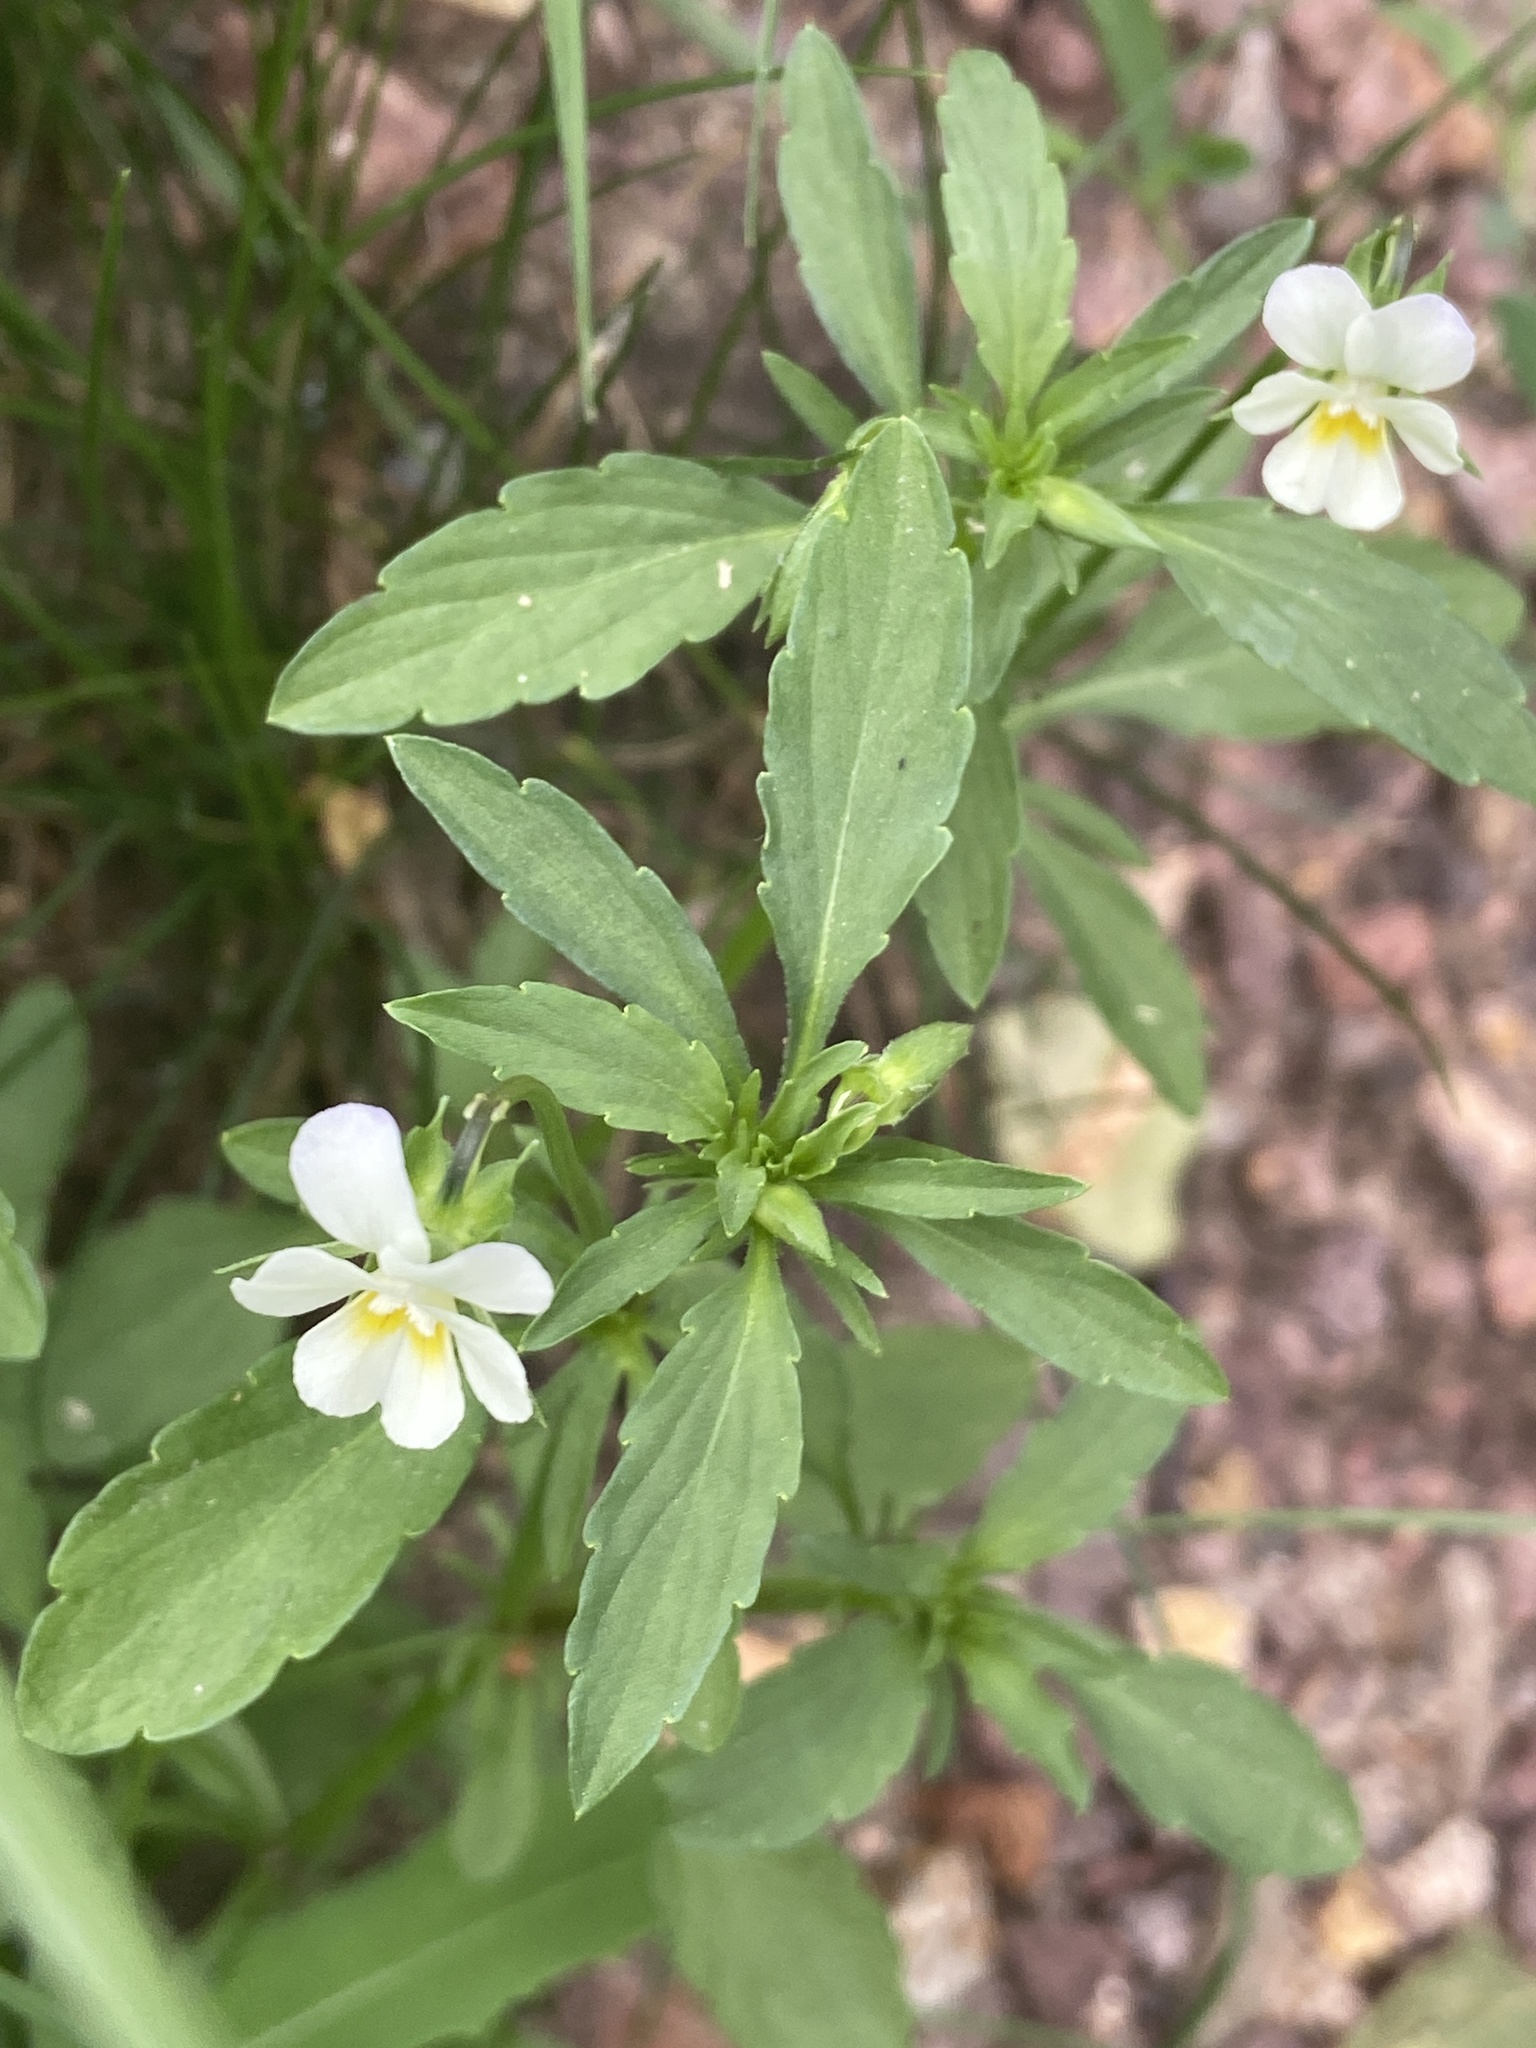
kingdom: Plantae
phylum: Tracheophyta
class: Magnoliopsida
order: Malpighiales
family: Violaceae
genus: Viola
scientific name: Viola arvensis
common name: Field pansy
